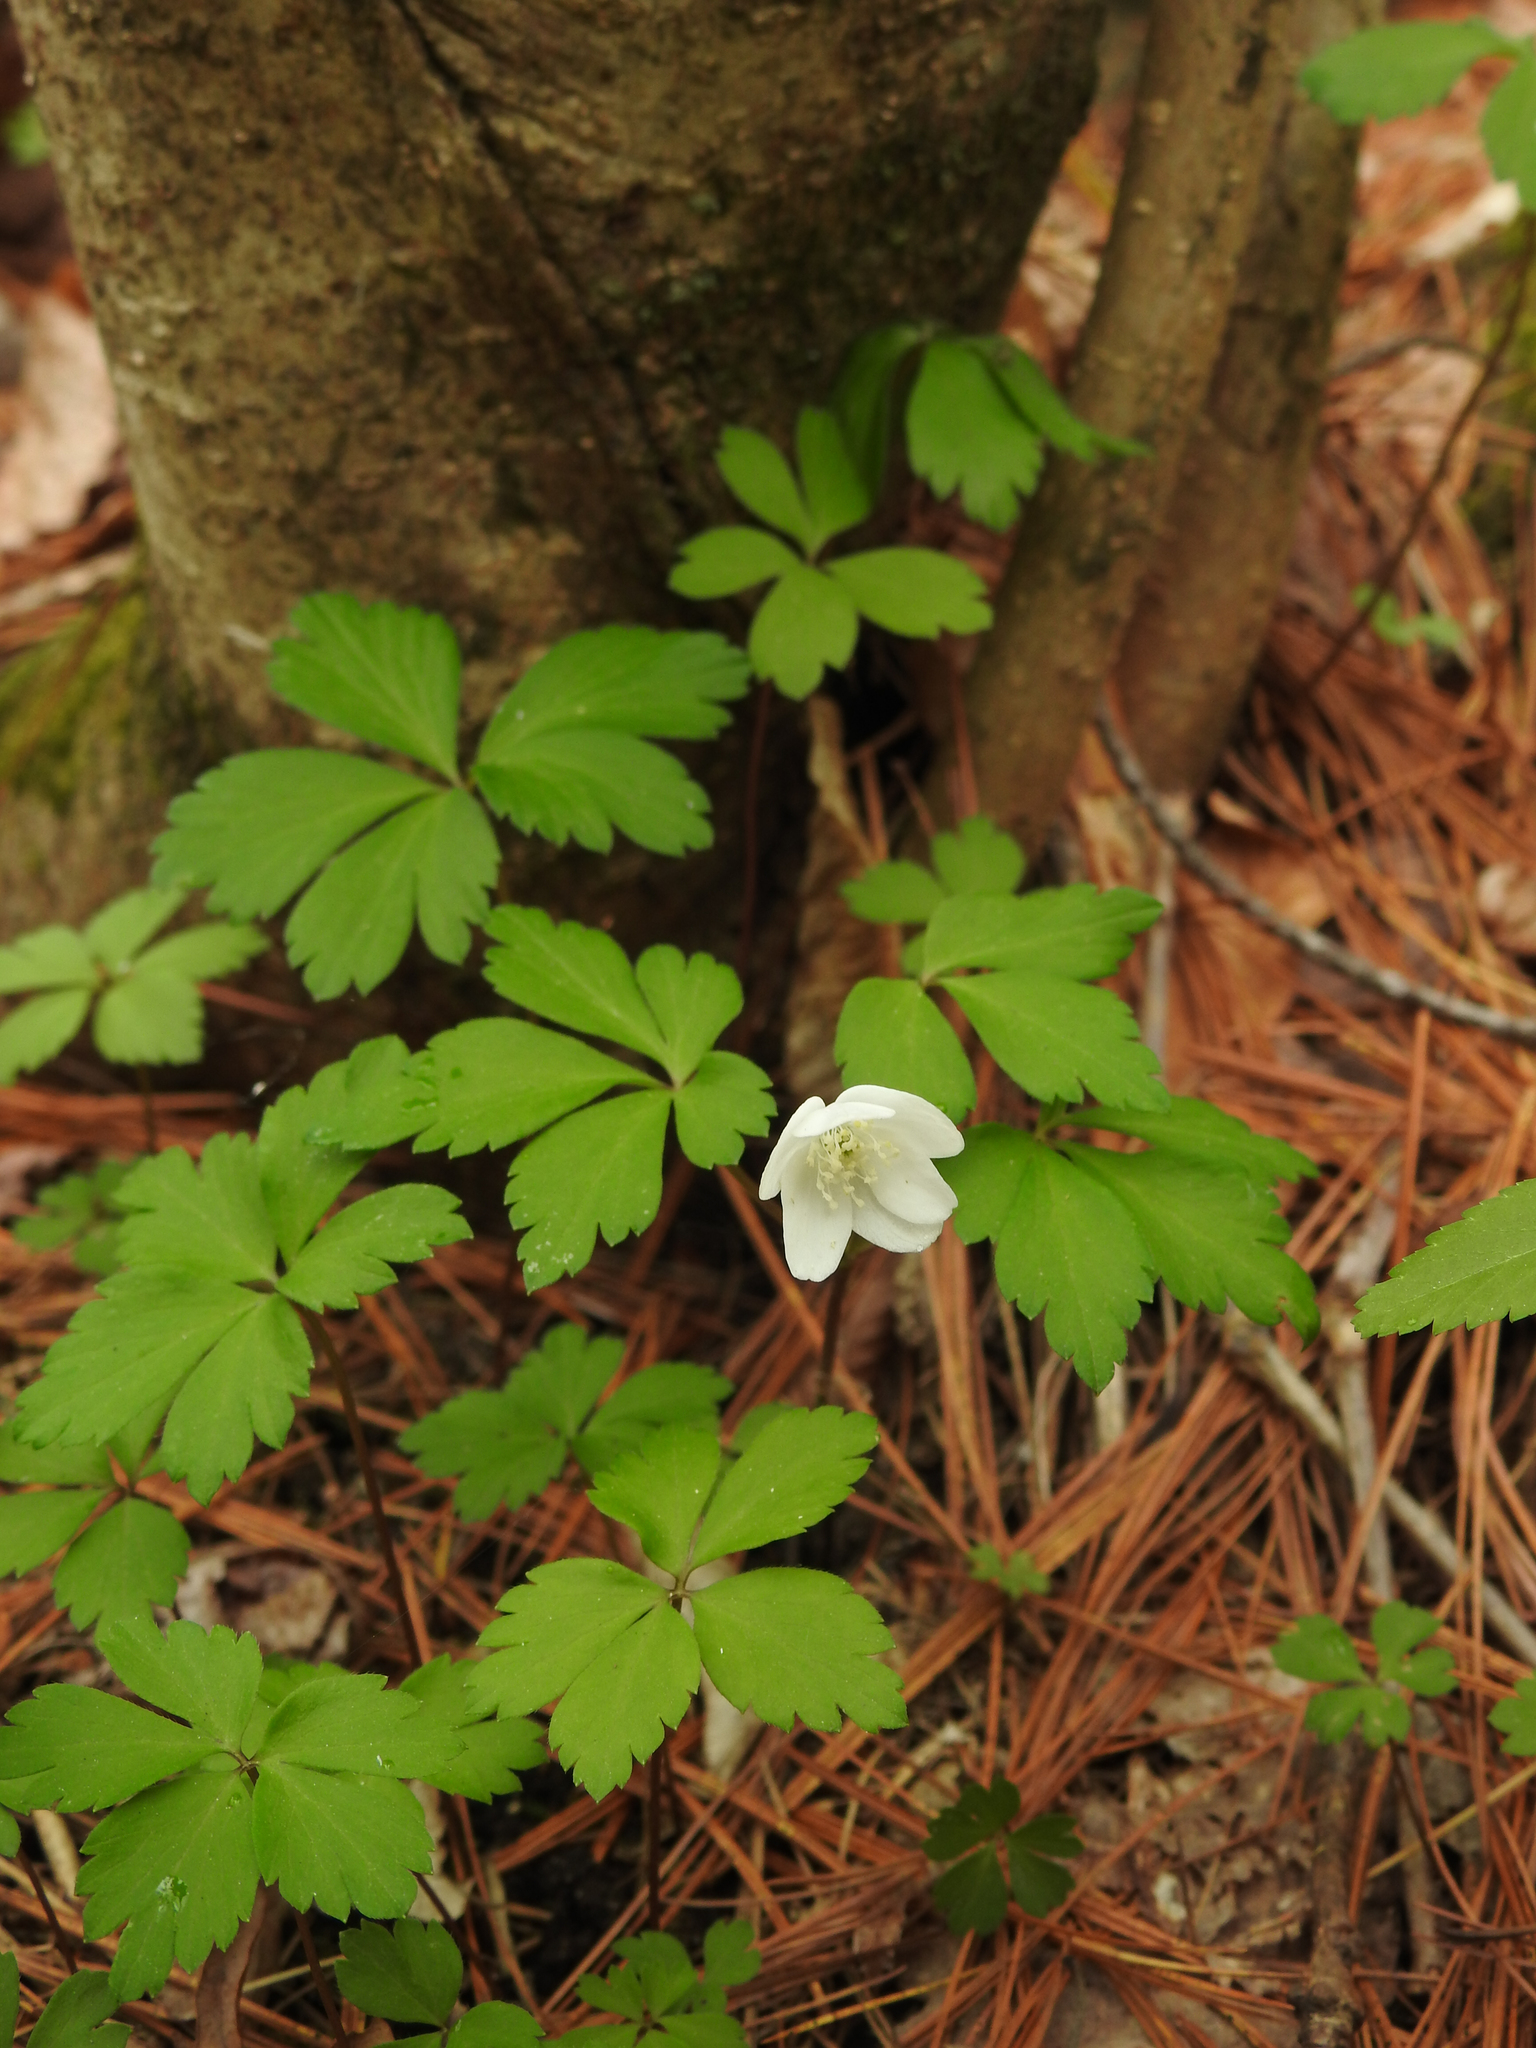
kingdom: Plantae
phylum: Tracheophyta
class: Magnoliopsida
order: Ranunculales
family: Ranunculaceae
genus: Anemone
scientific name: Anemone quinquefolia
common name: Wood anemone
